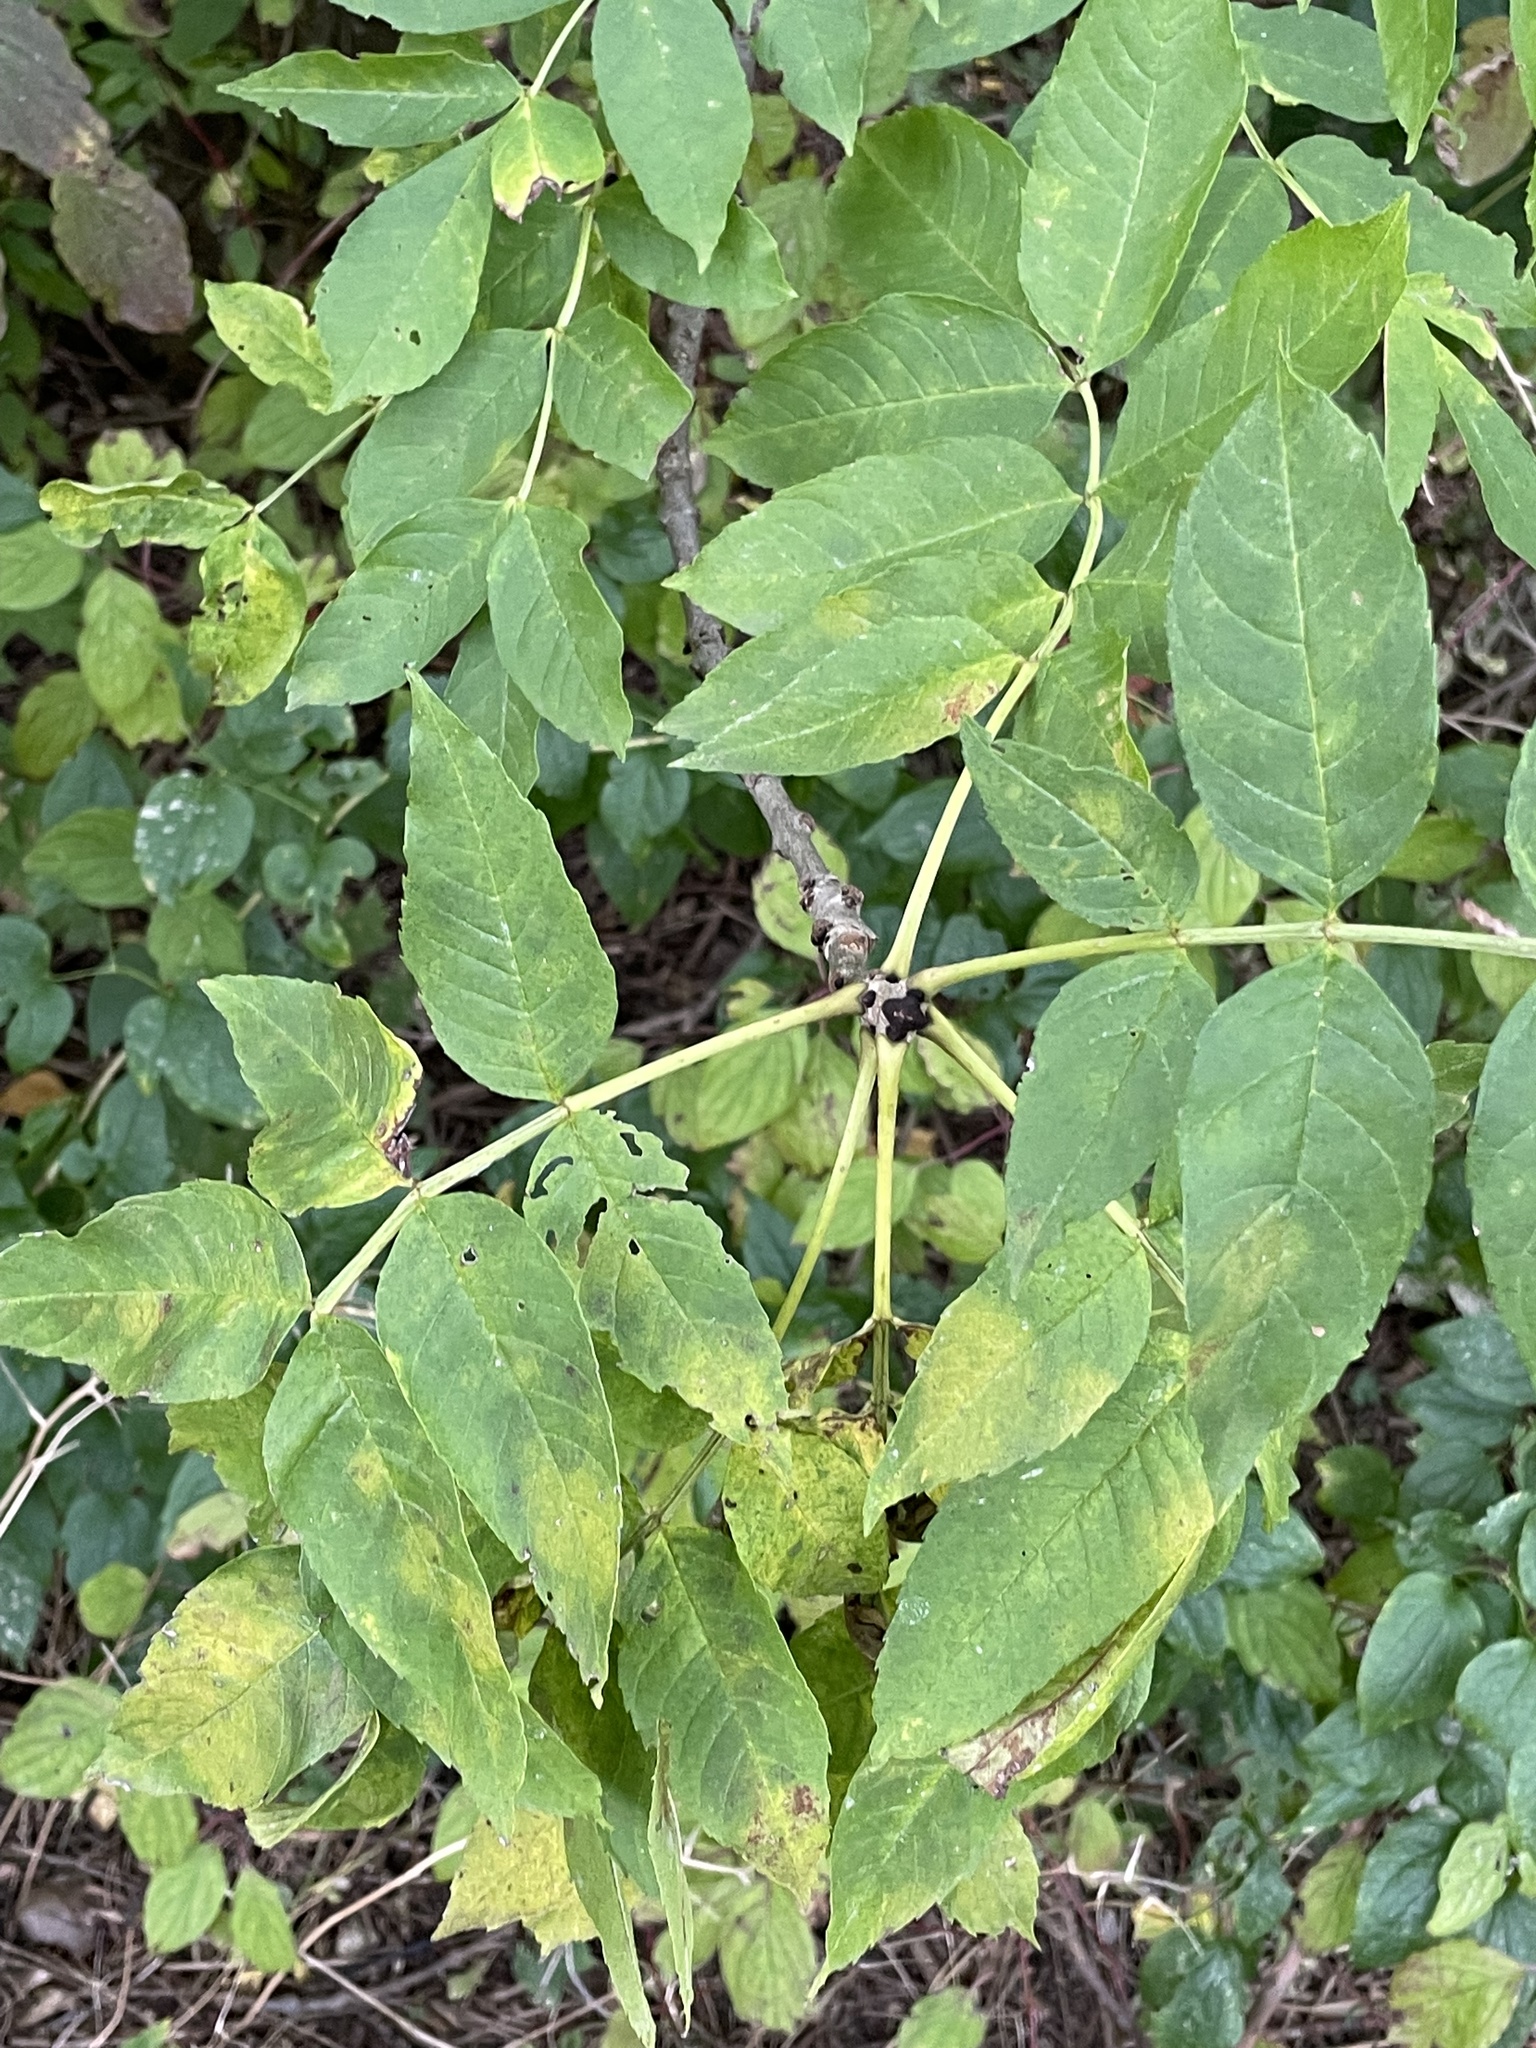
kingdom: Plantae
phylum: Tracheophyta
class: Magnoliopsida
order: Lamiales
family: Oleaceae
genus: Fraxinus
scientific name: Fraxinus excelsior
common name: European ash
